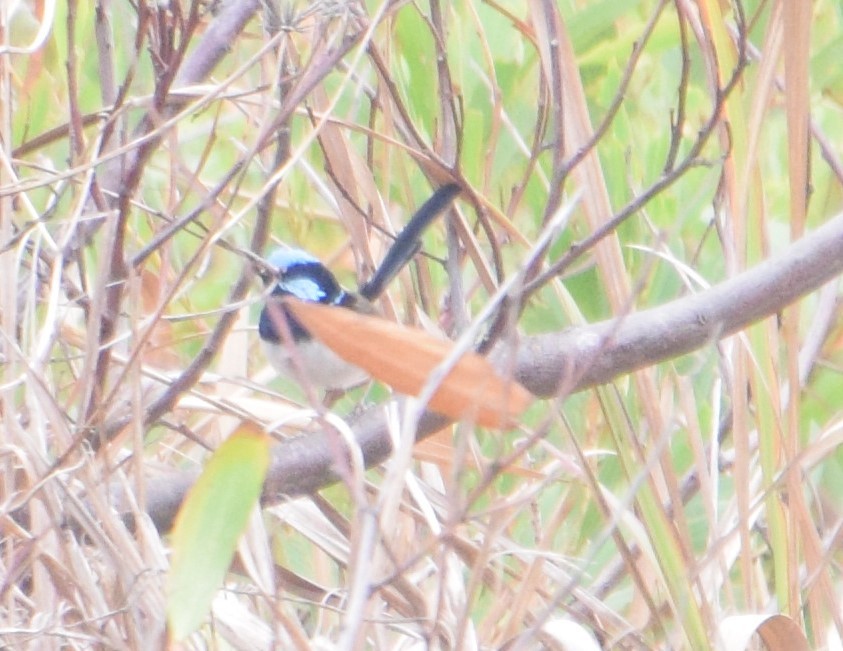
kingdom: Animalia
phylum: Chordata
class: Aves
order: Passeriformes
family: Maluridae
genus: Malurus
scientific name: Malurus cyaneus
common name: Superb fairywren
